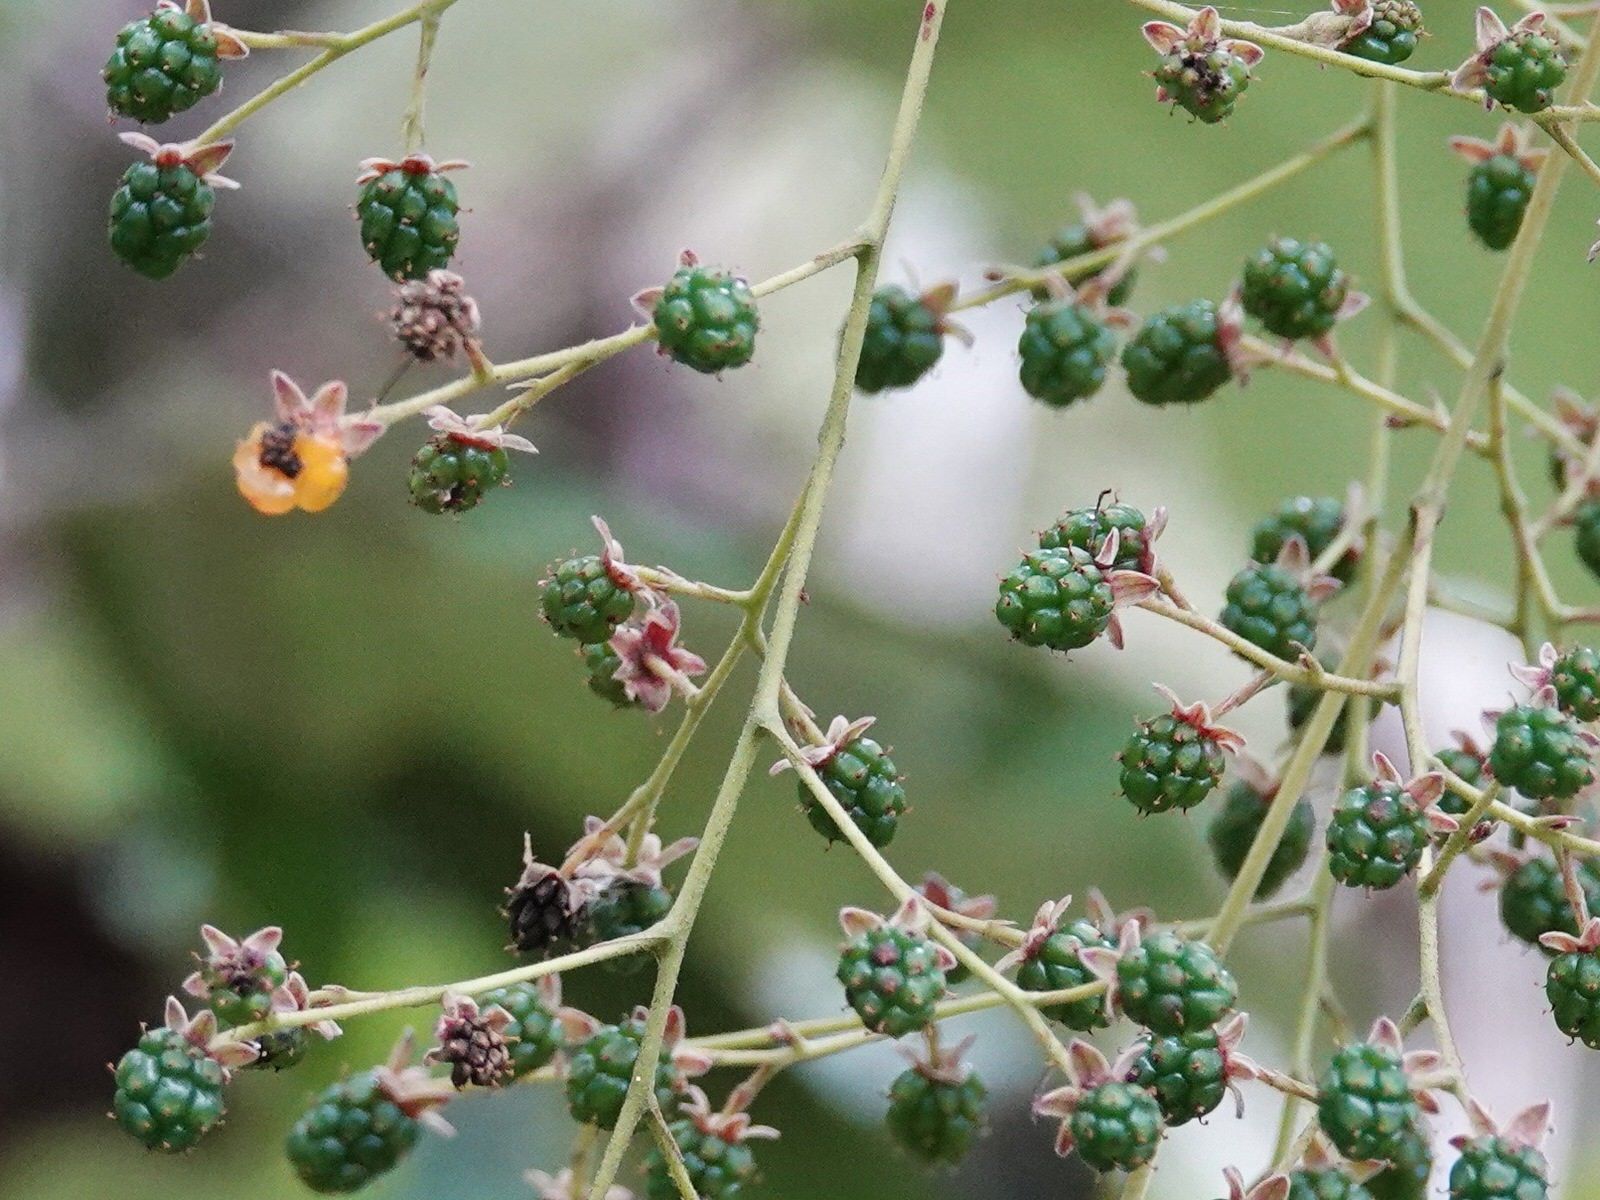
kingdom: Plantae
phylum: Tracheophyta
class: Magnoliopsida
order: Rosales
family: Rosaceae
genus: Rubus
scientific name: Rubus cissoides
